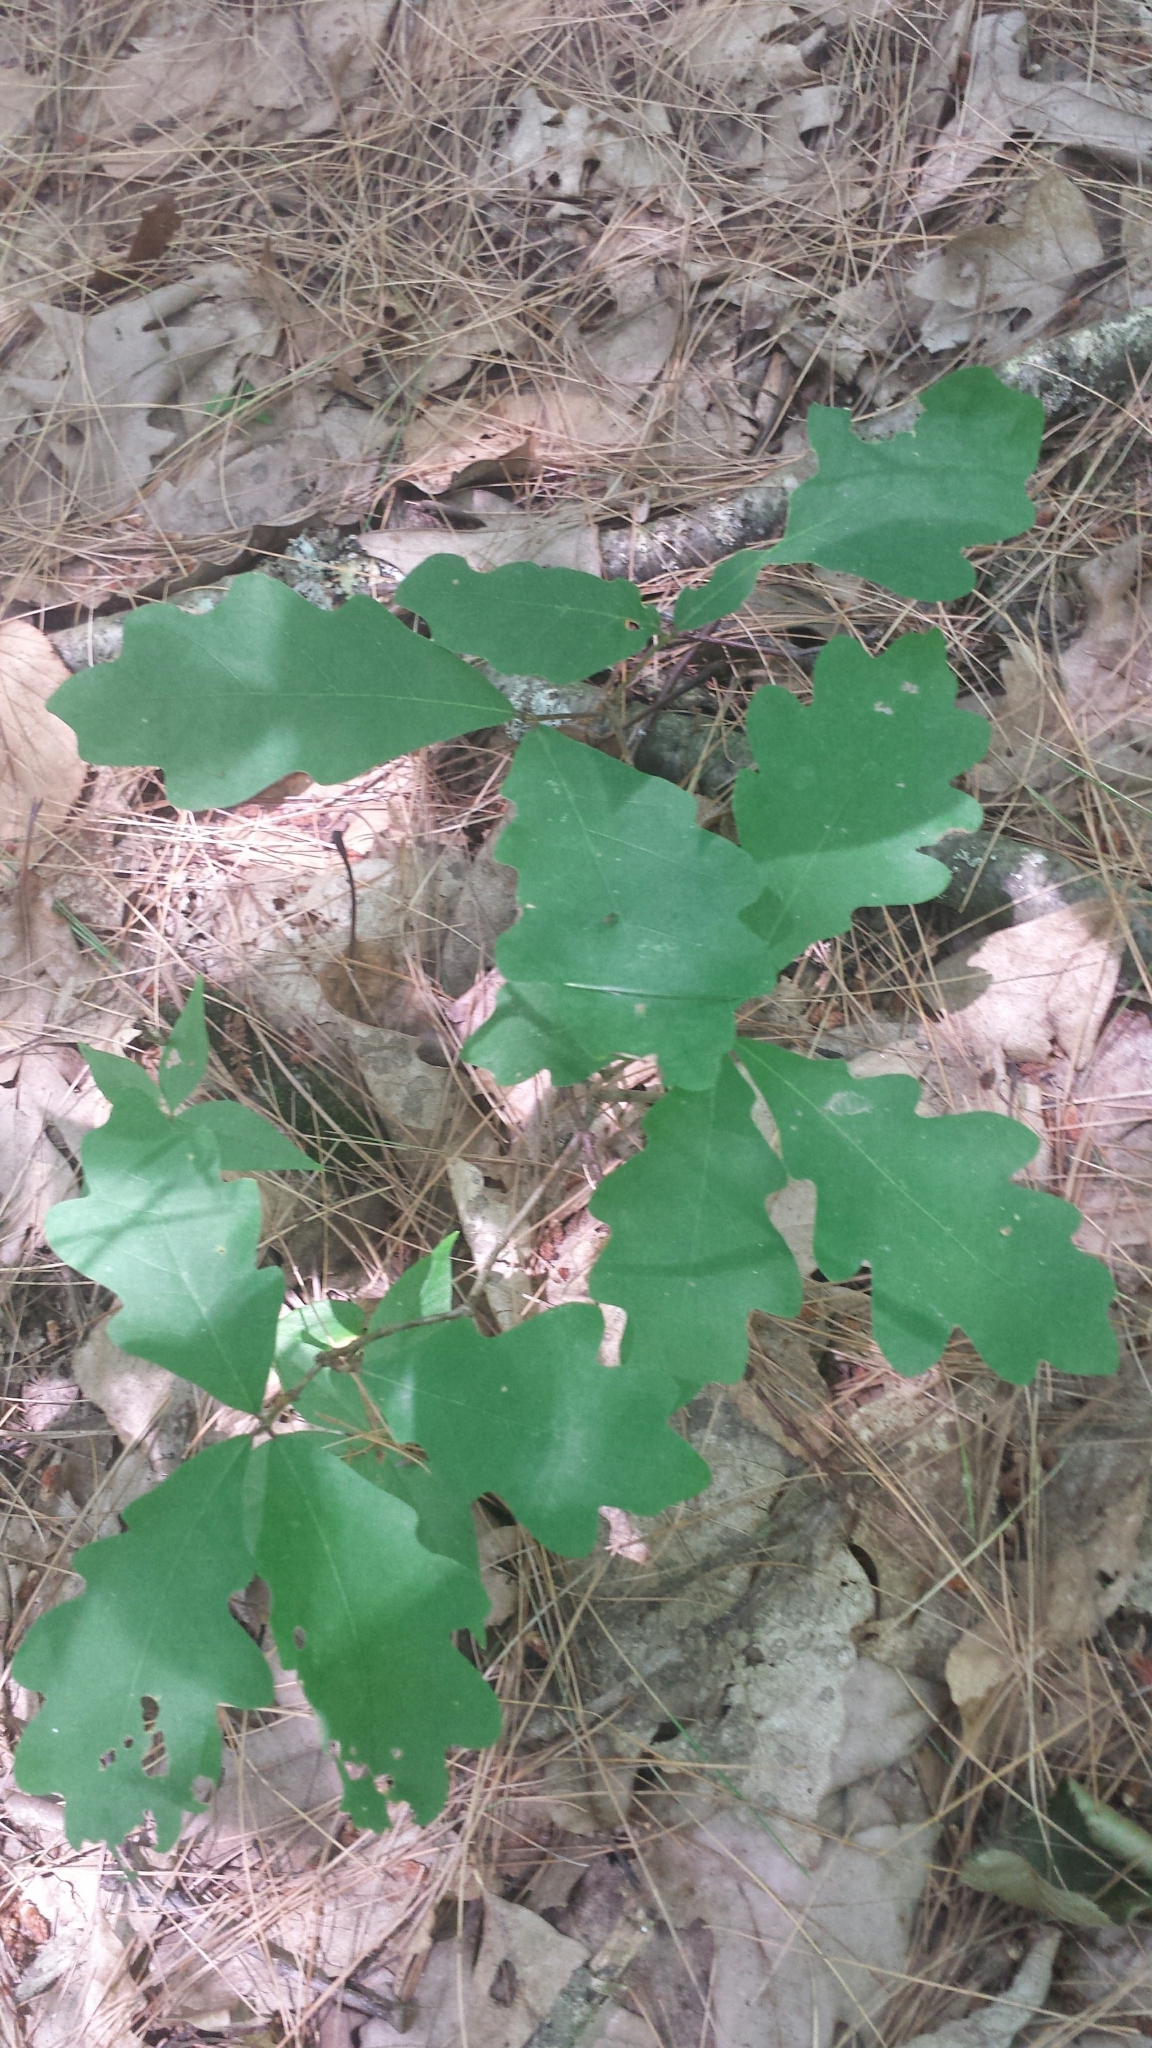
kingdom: Plantae
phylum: Tracheophyta
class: Magnoliopsida
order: Fagales
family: Fagaceae
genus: Quercus
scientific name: Quercus alba
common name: White oak
